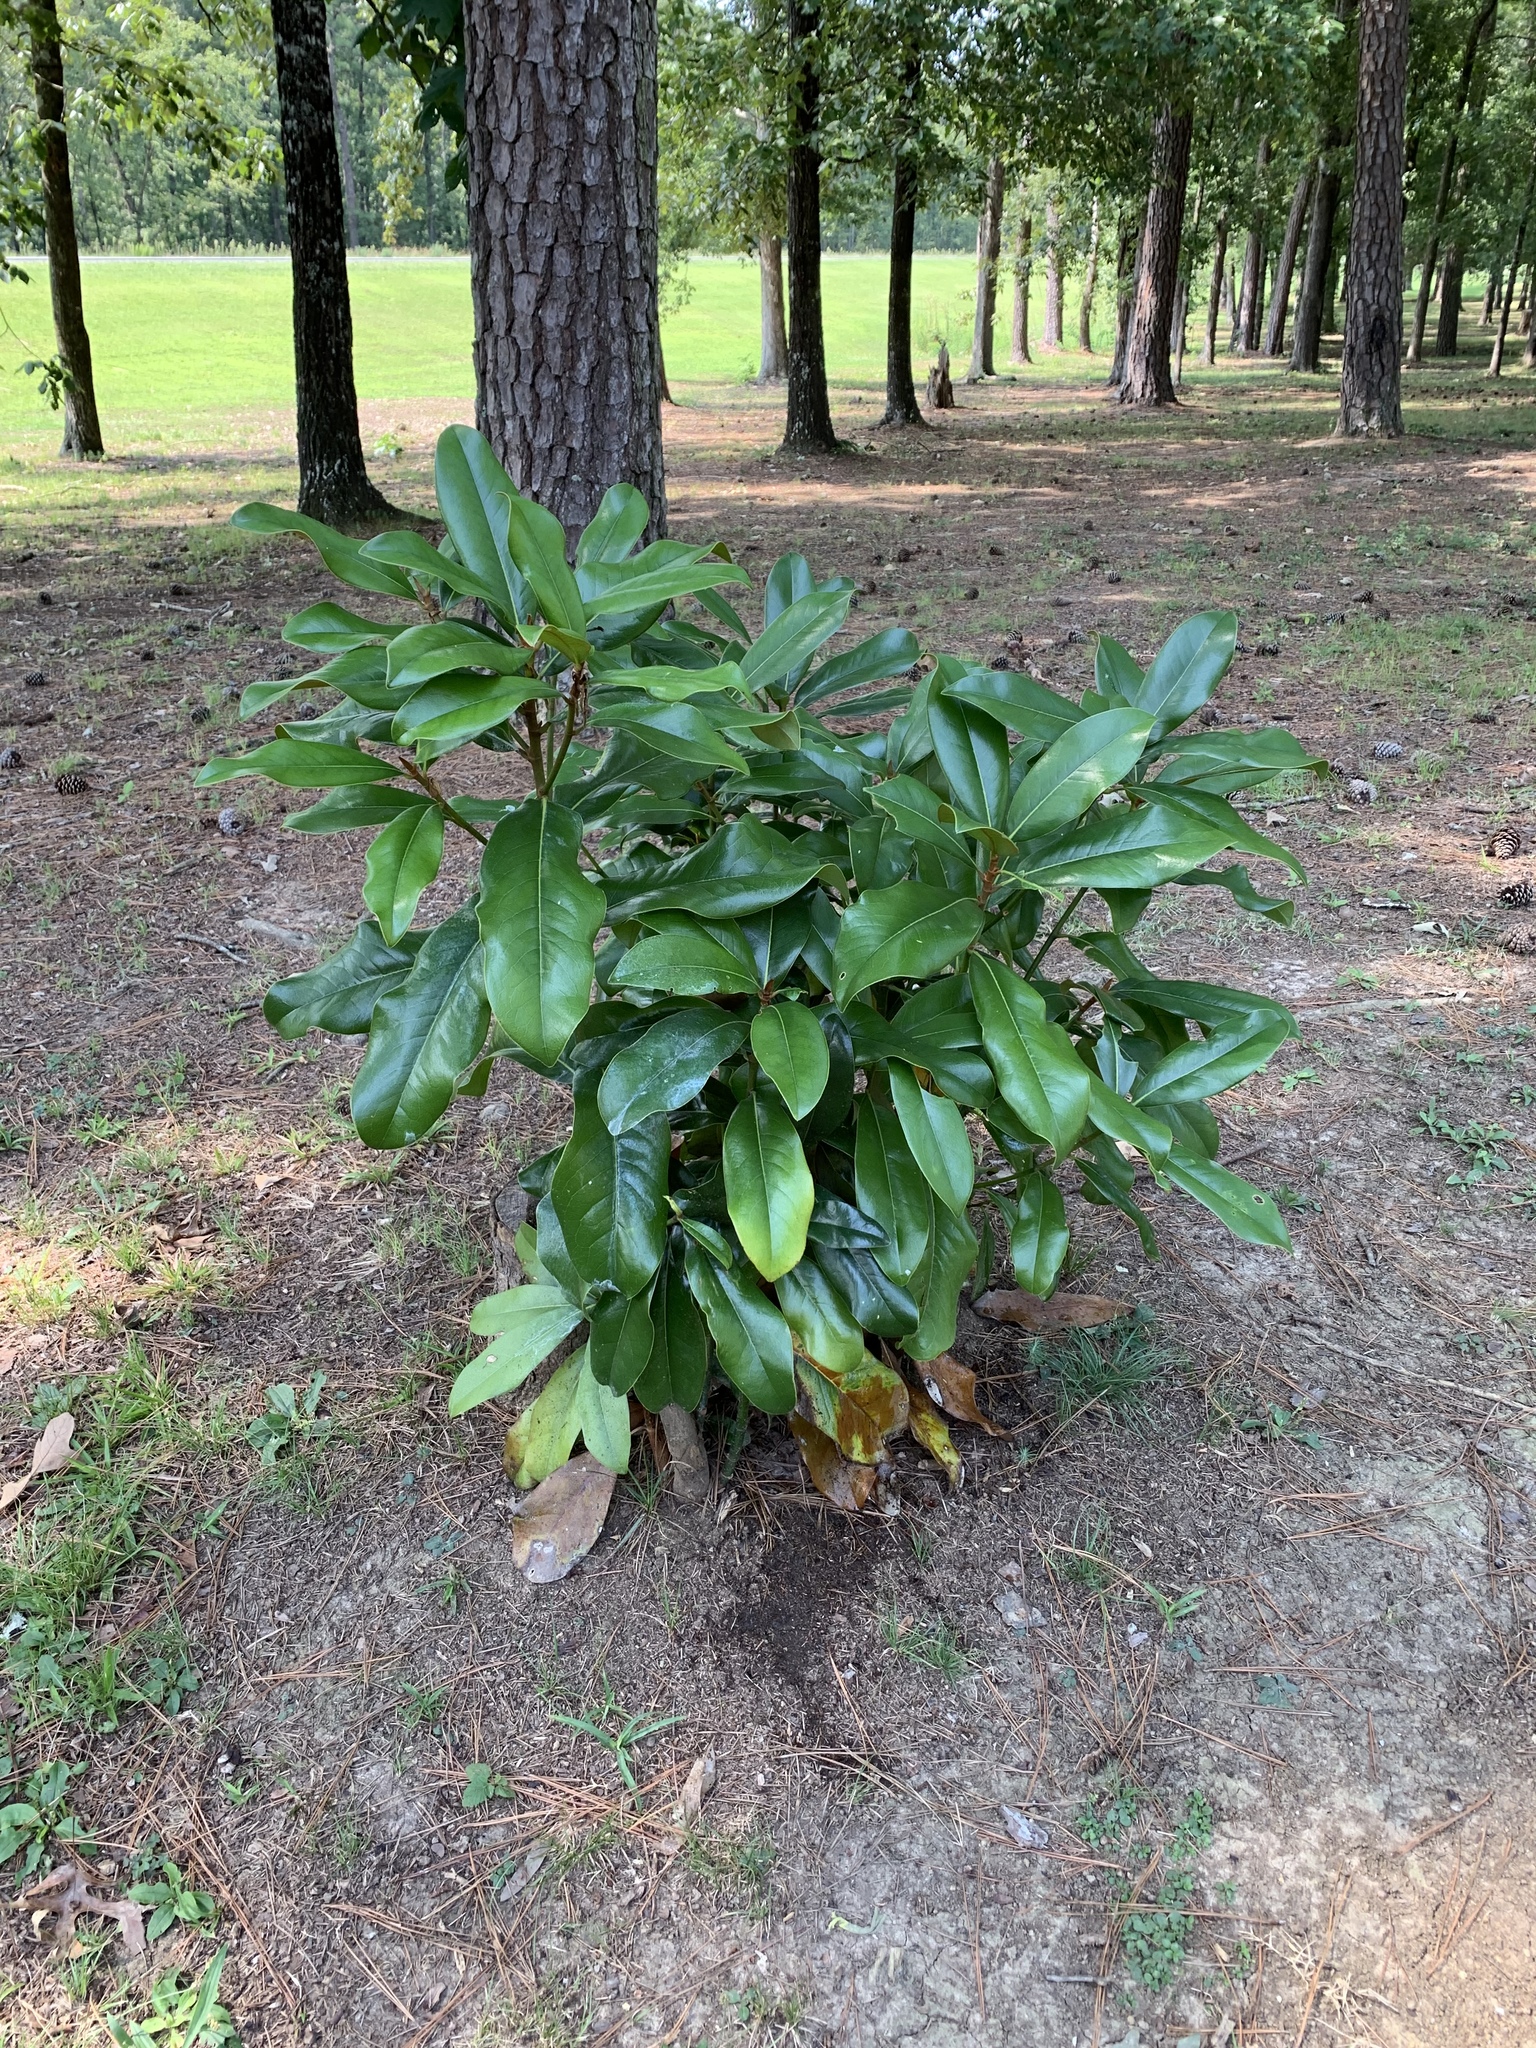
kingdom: Plantae
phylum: Tracheophyta
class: Magnoliopsida
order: Magnoliales
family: Magnoliaceae
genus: Magnolia
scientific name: Magnolia grandiflora
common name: Southern magnolia
